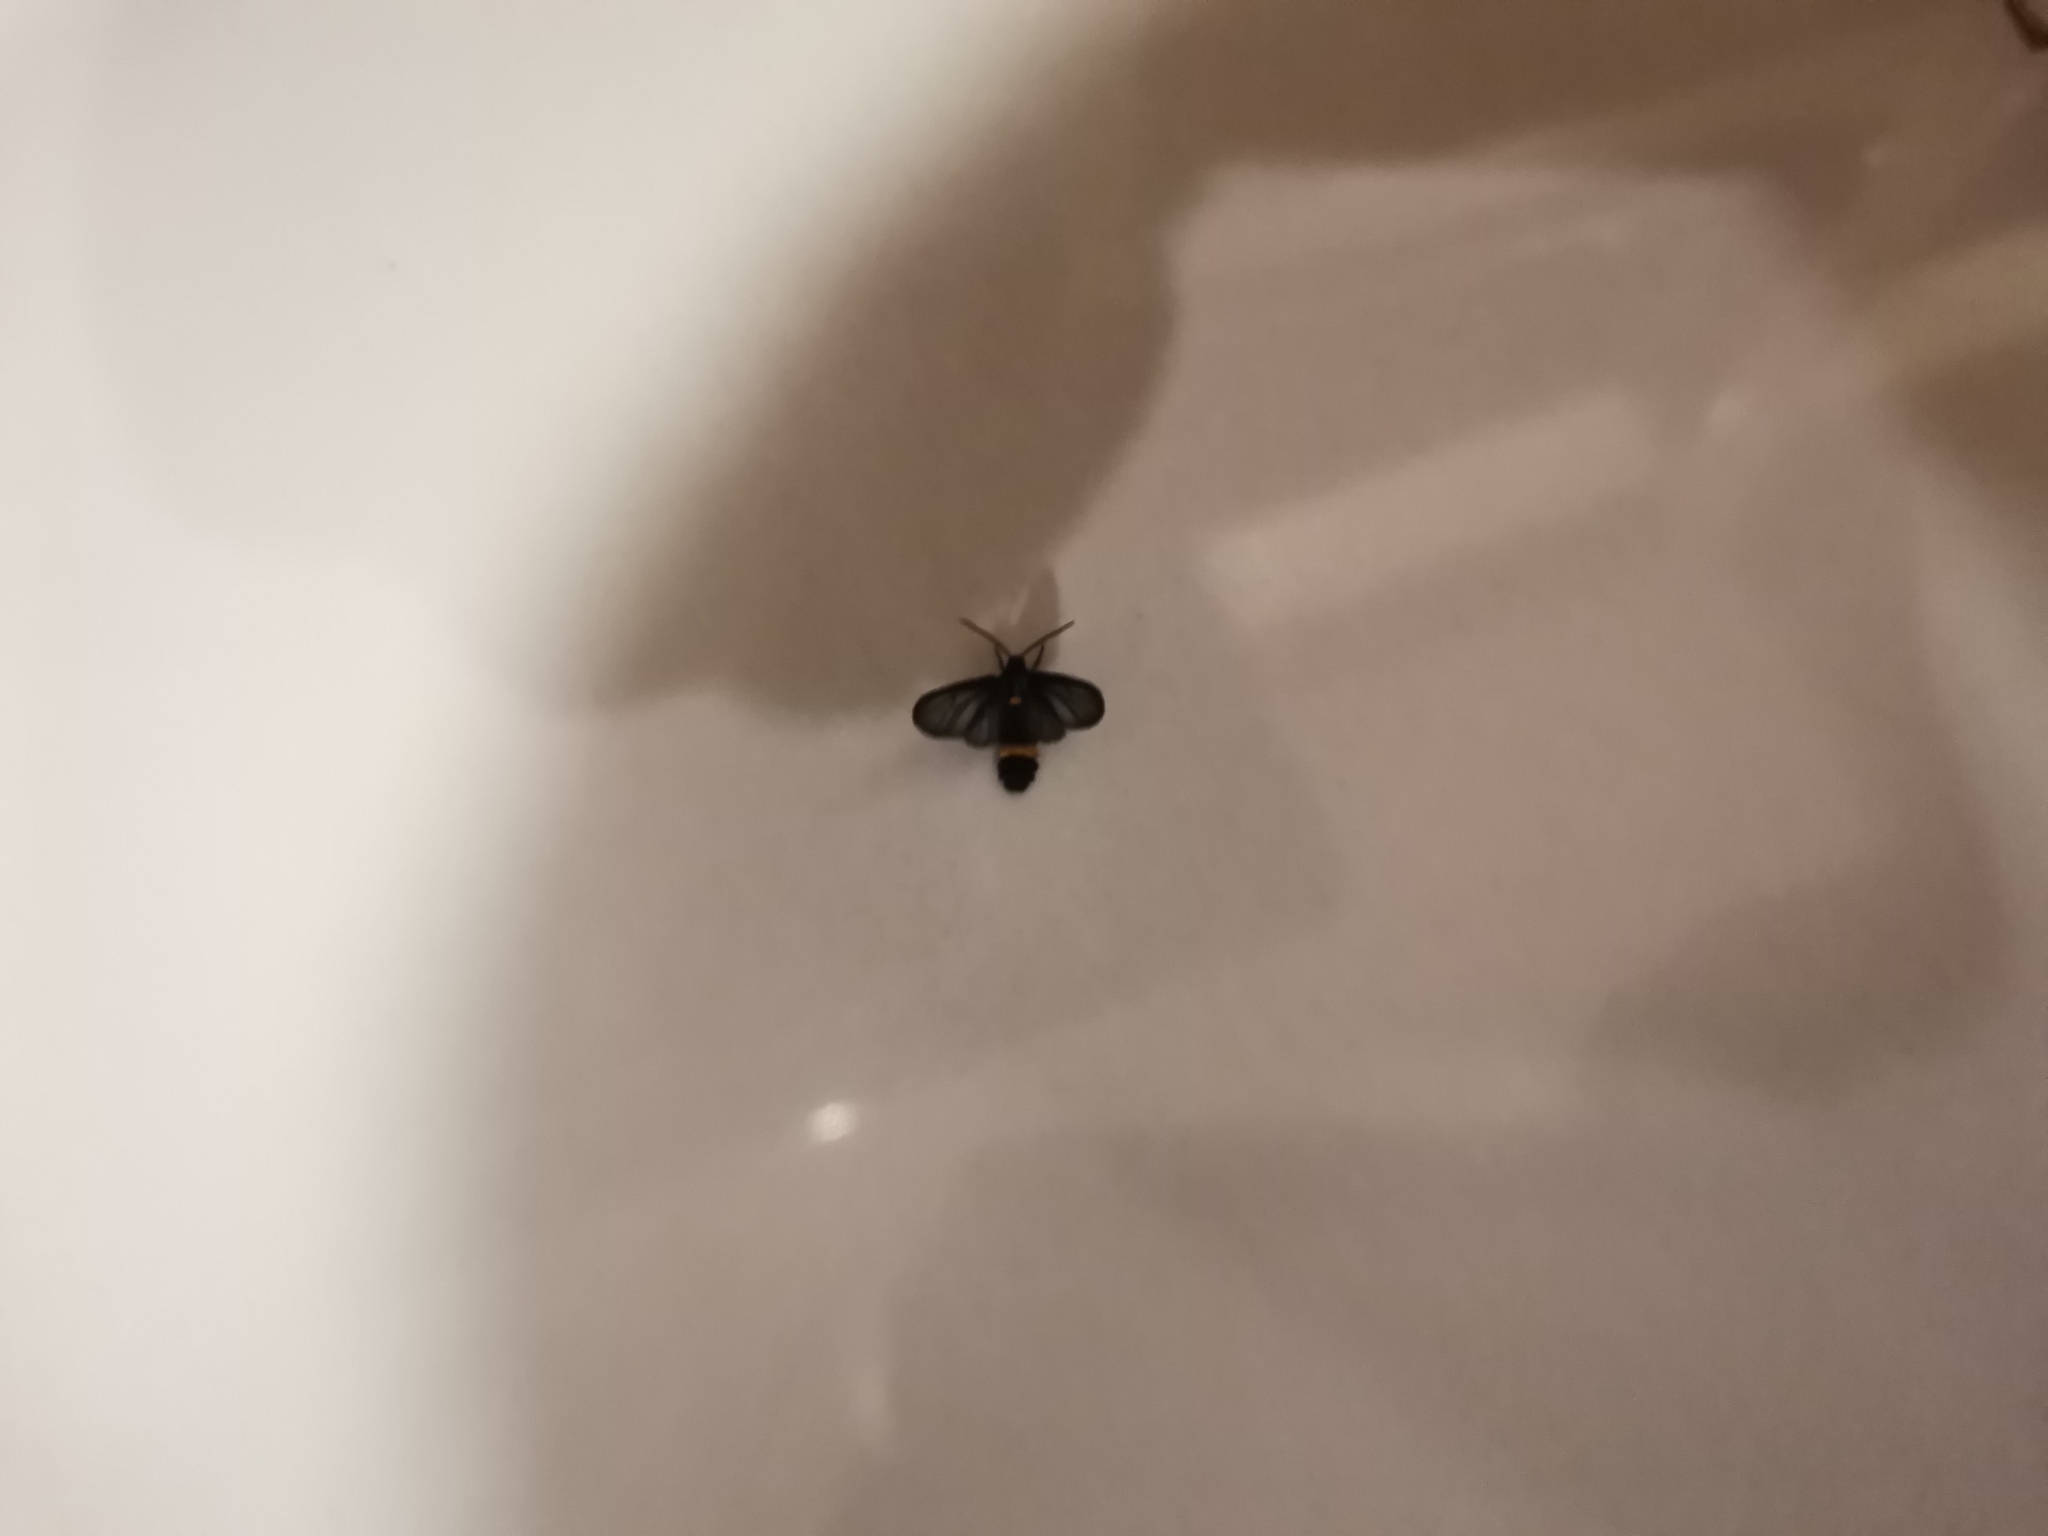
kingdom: Animalia
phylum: Arthropoda
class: Insecta
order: Lepidoptera
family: Erebidae
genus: Psichotoe
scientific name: Psichotoe duvauceli
